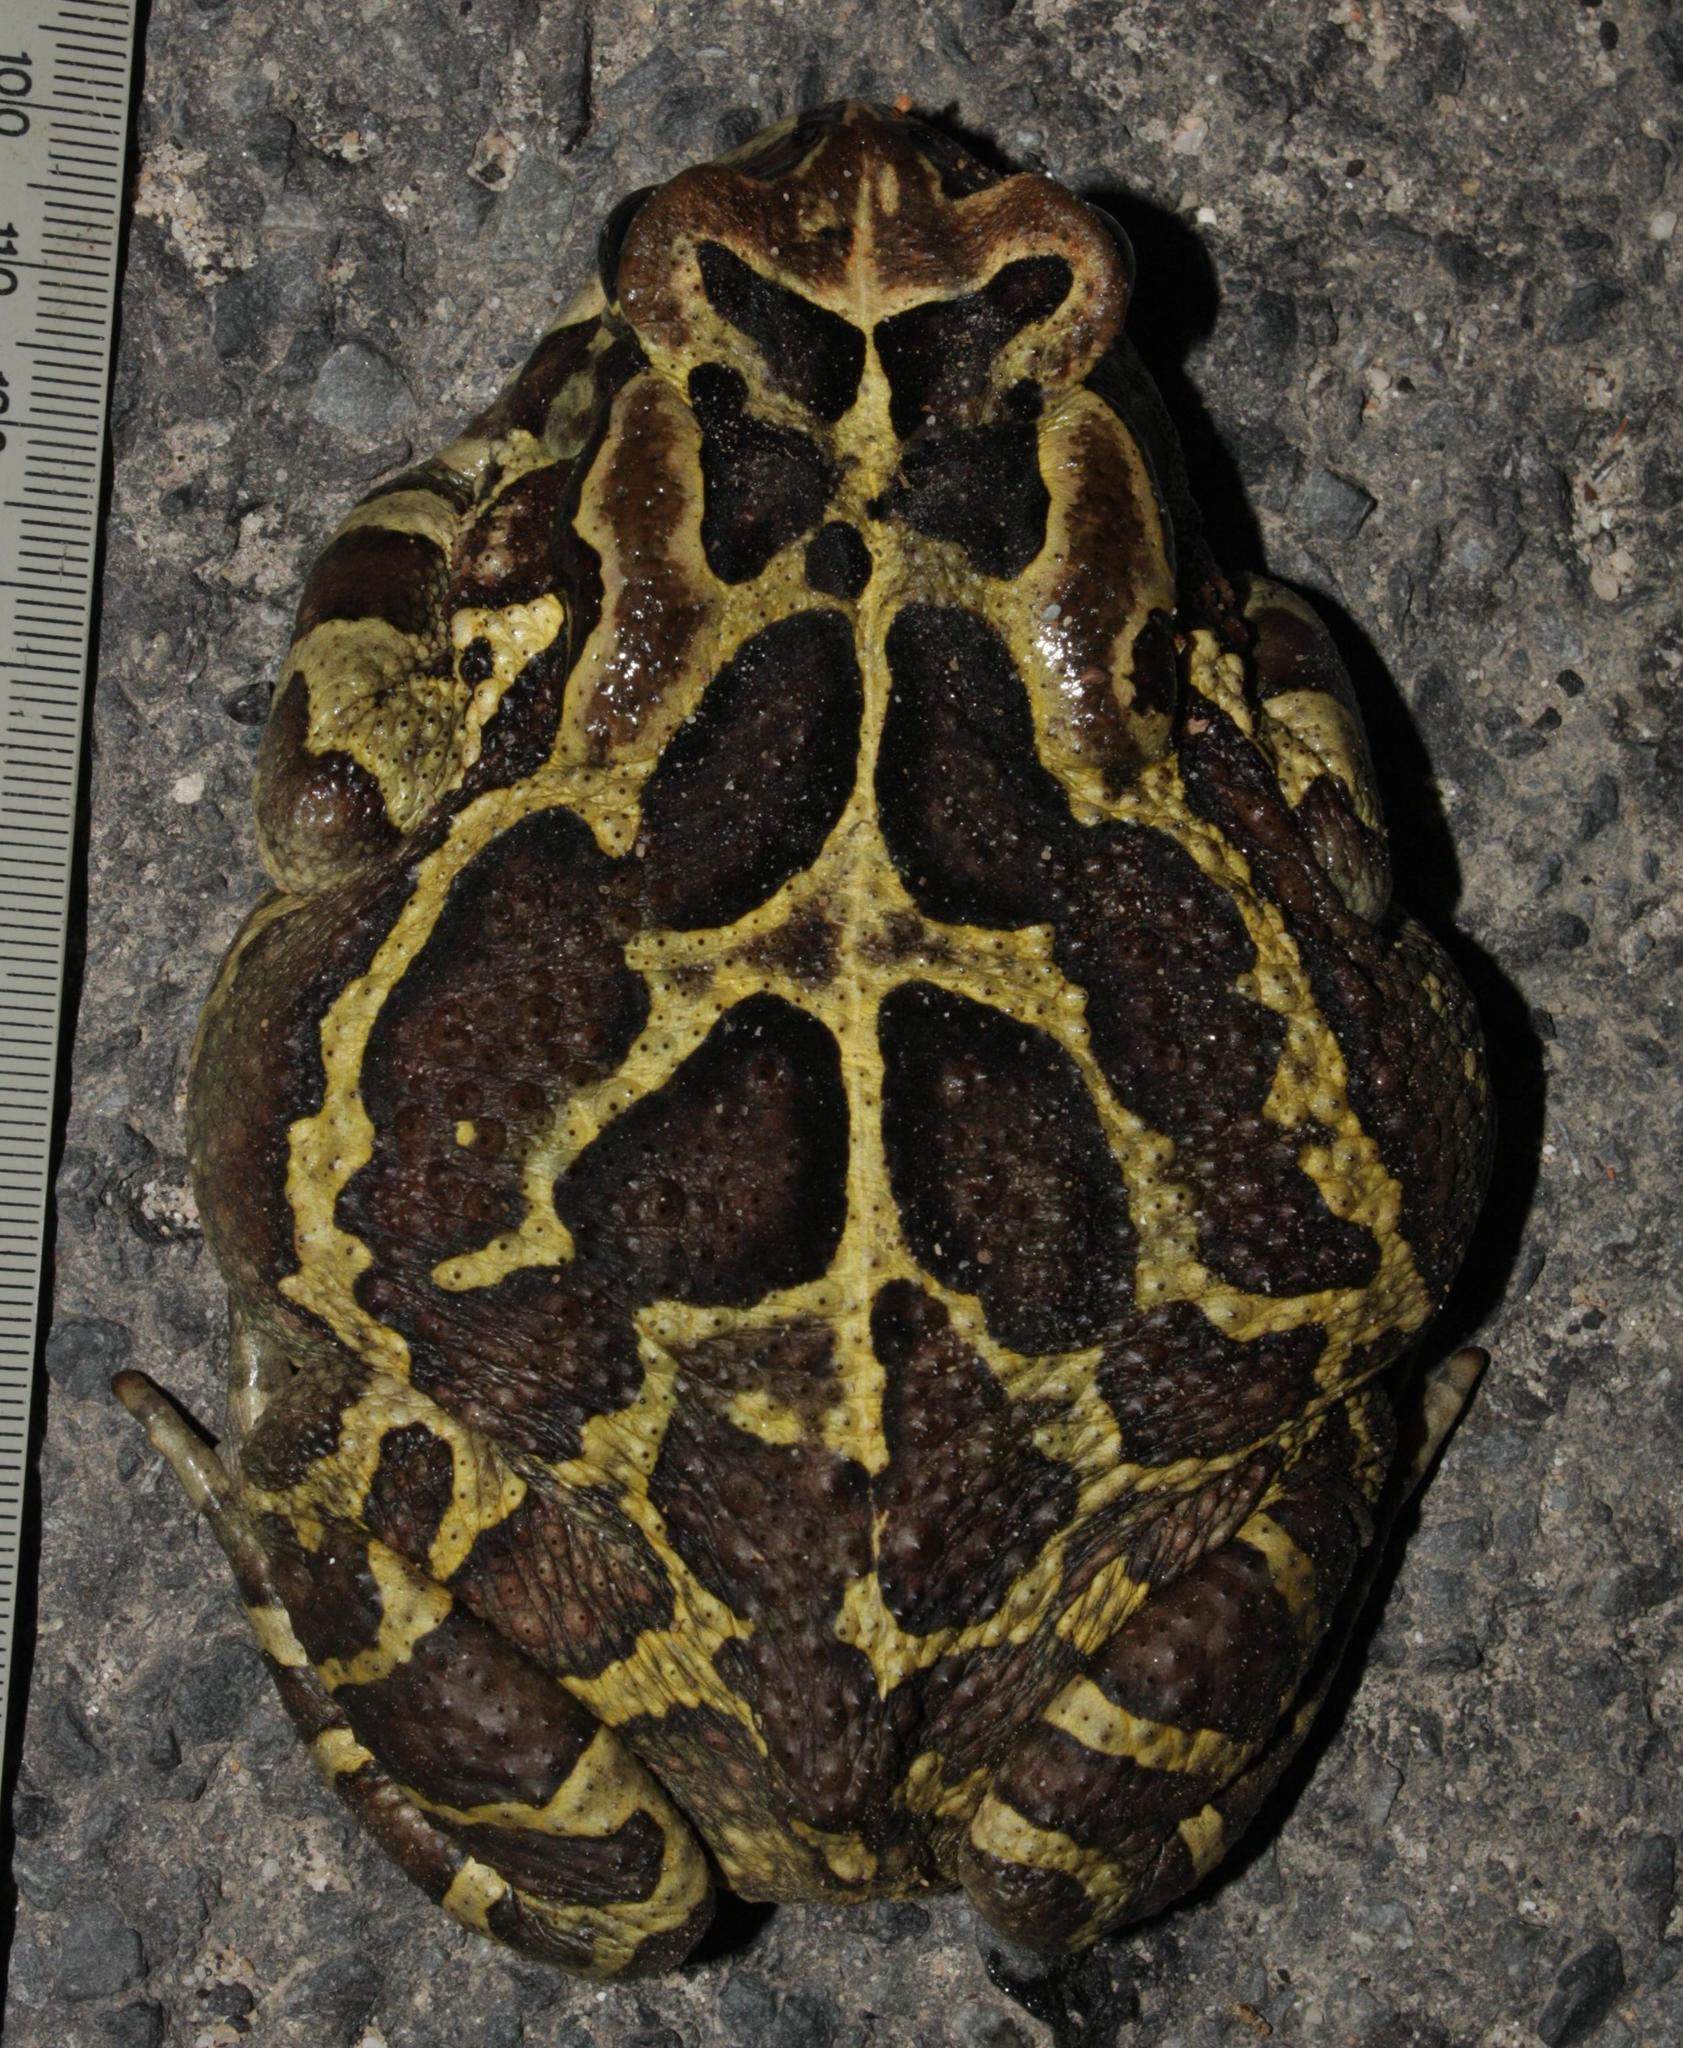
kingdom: Animalia
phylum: Chordata
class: Amphibia
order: Anura
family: Bufonidae
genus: Sclerophrys
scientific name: Sclerophrys pantherina
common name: Panther toad
